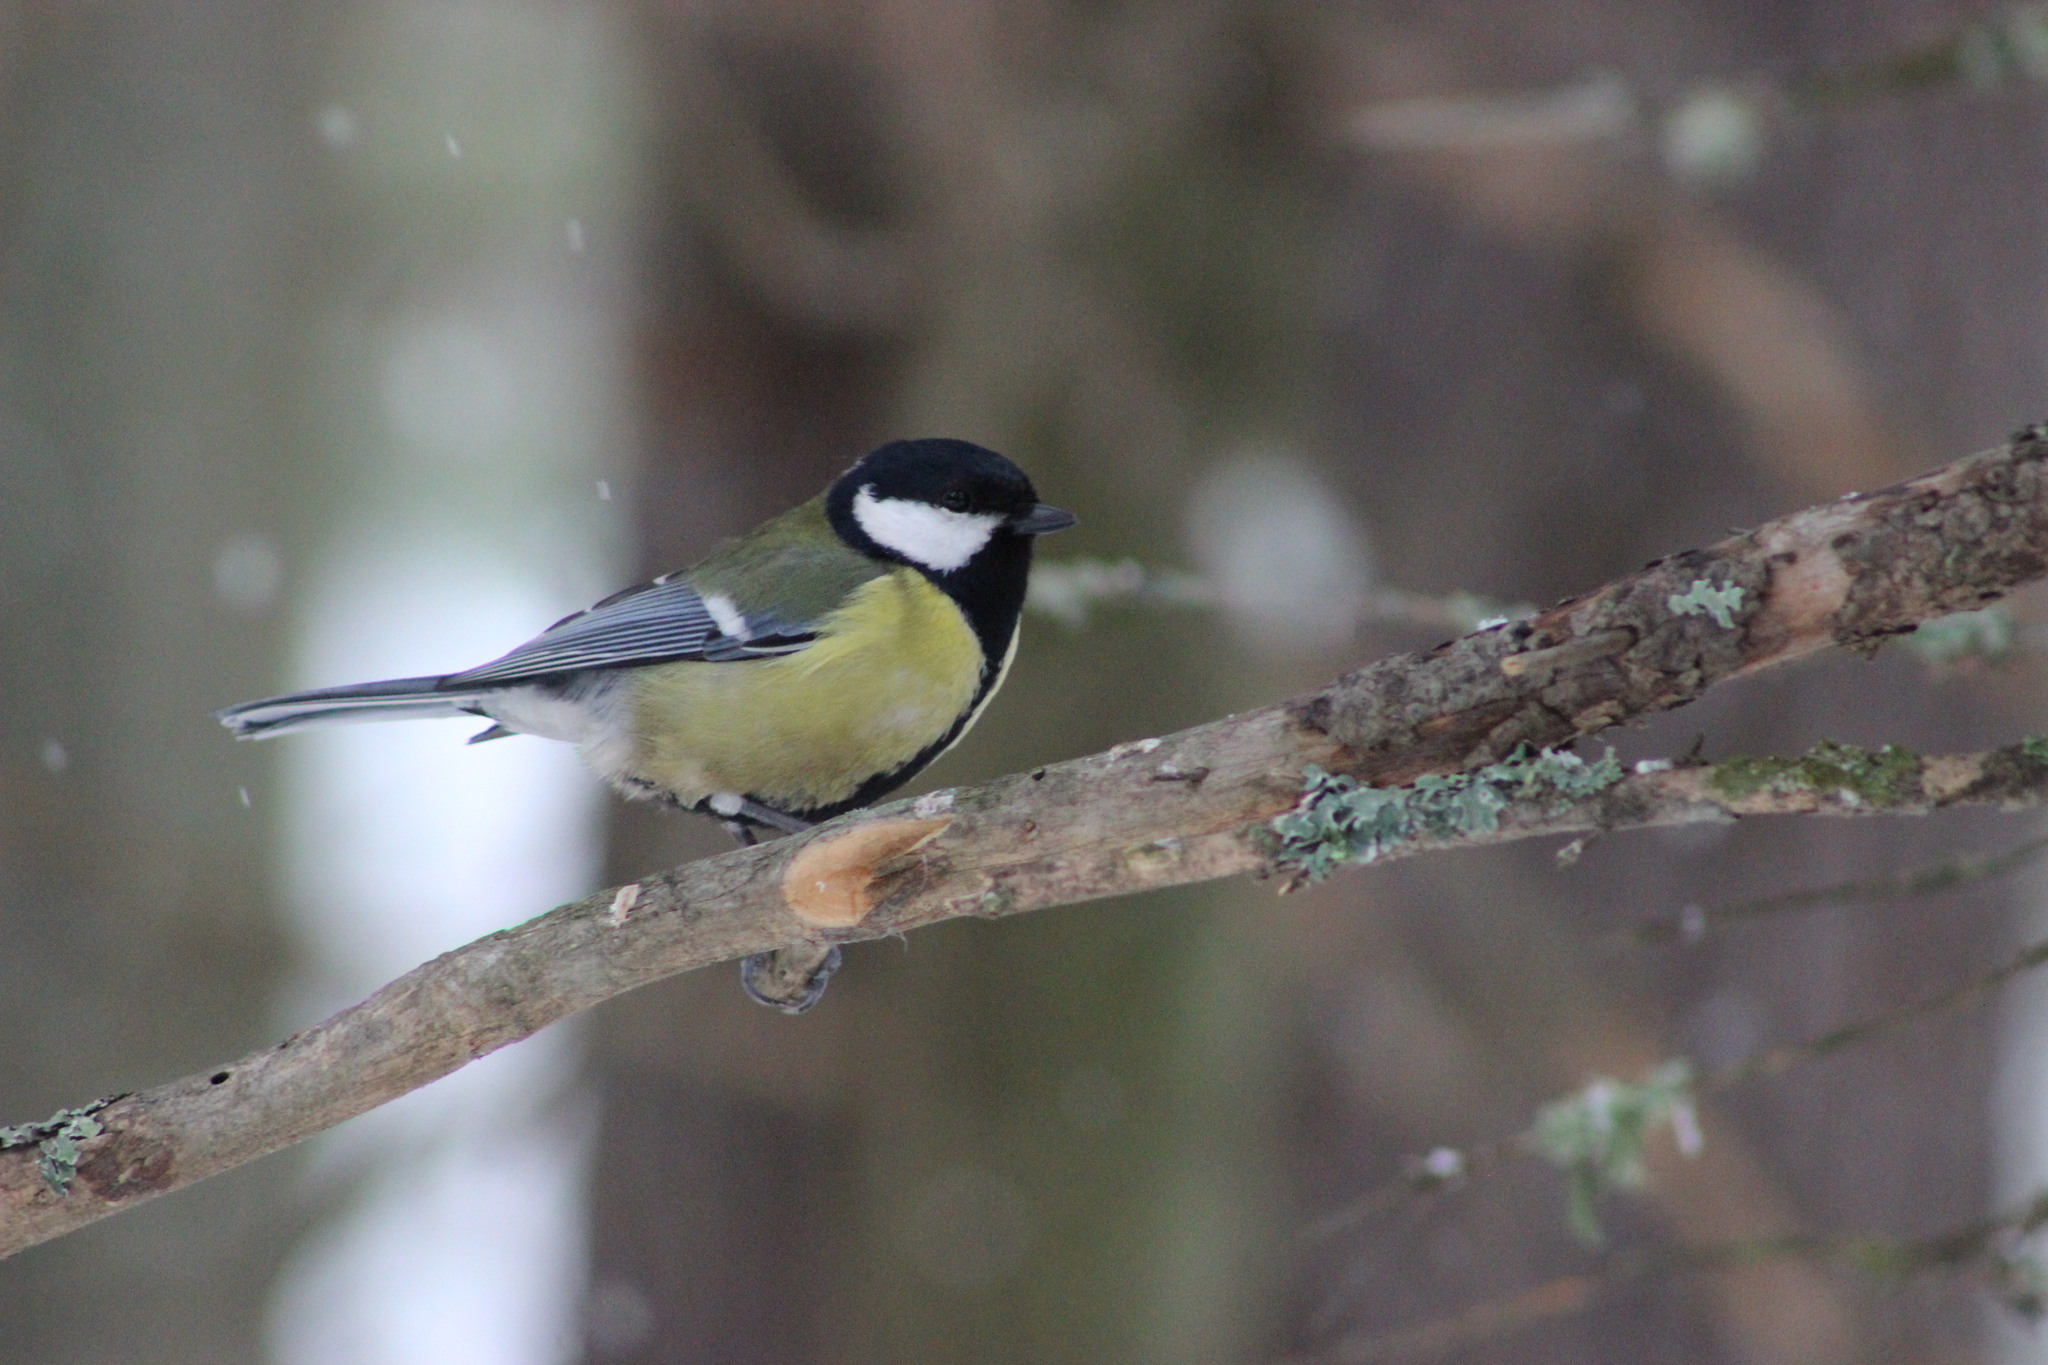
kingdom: Animalia
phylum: Chordata
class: Aves
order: Passeriformes
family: Paridae
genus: Parus
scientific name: Parus major
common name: Great tit
